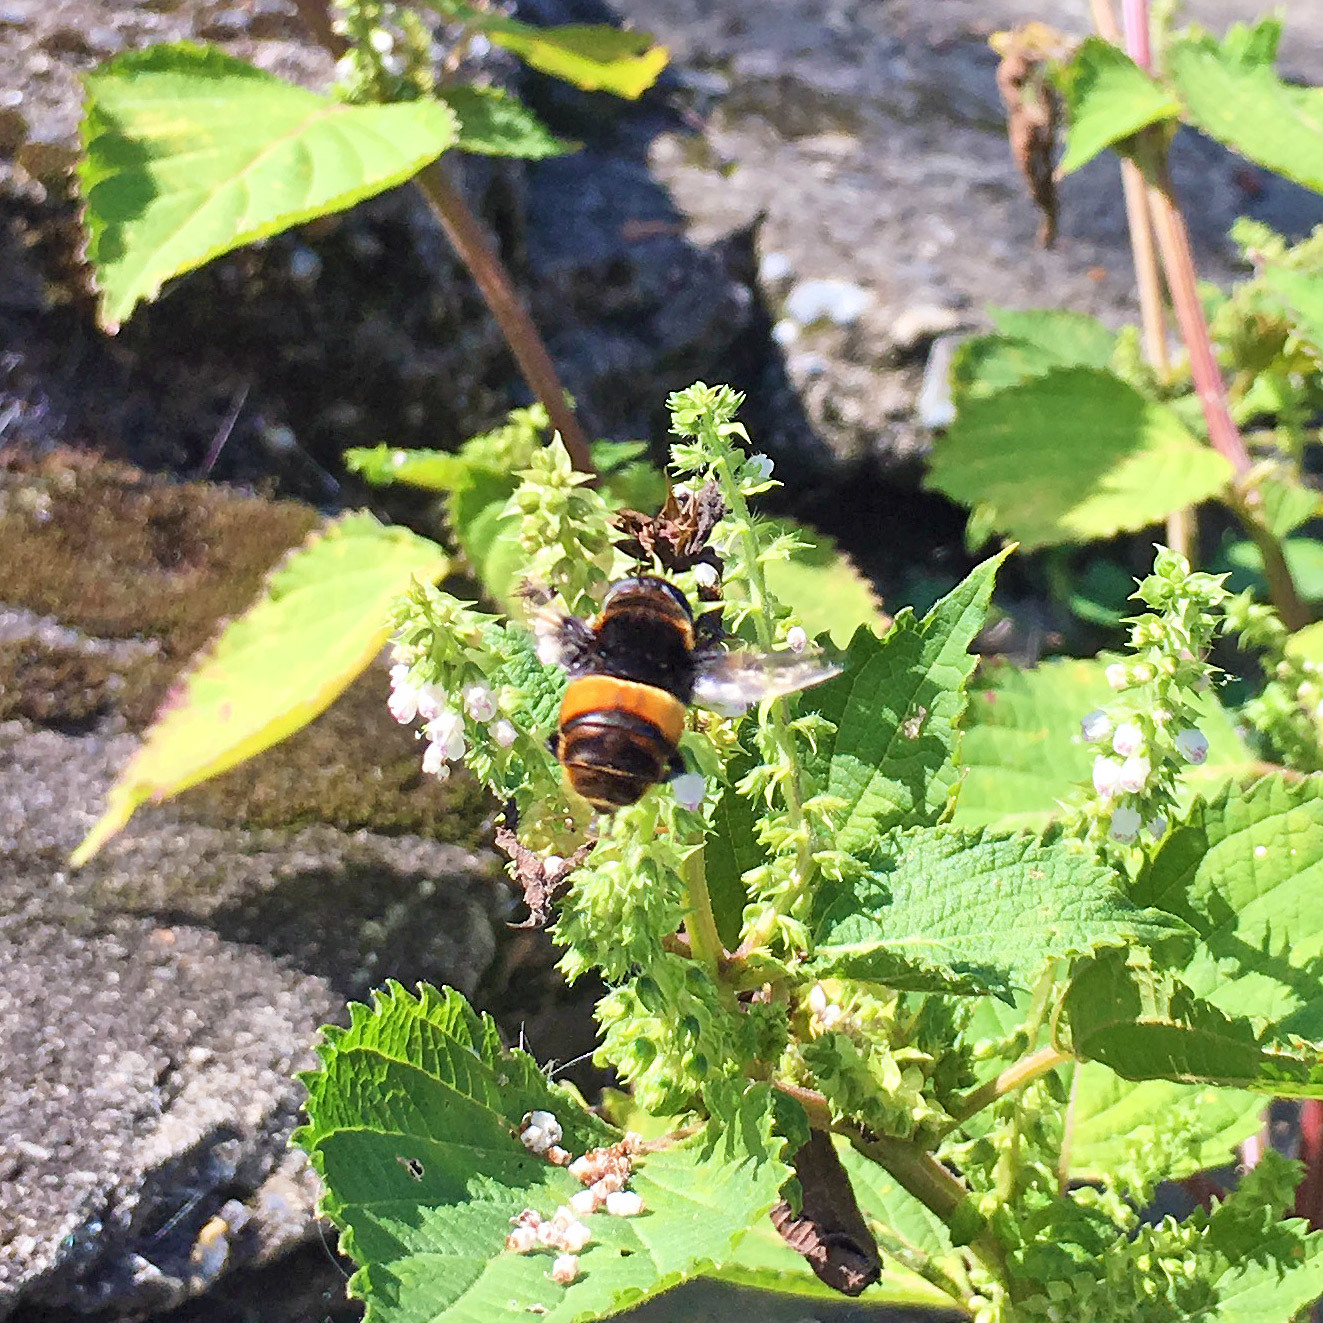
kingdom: Animalia
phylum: Arthropoda
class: Insecta
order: Diptera
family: Syrphidae
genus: Phytomia
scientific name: Phytomia zonata
